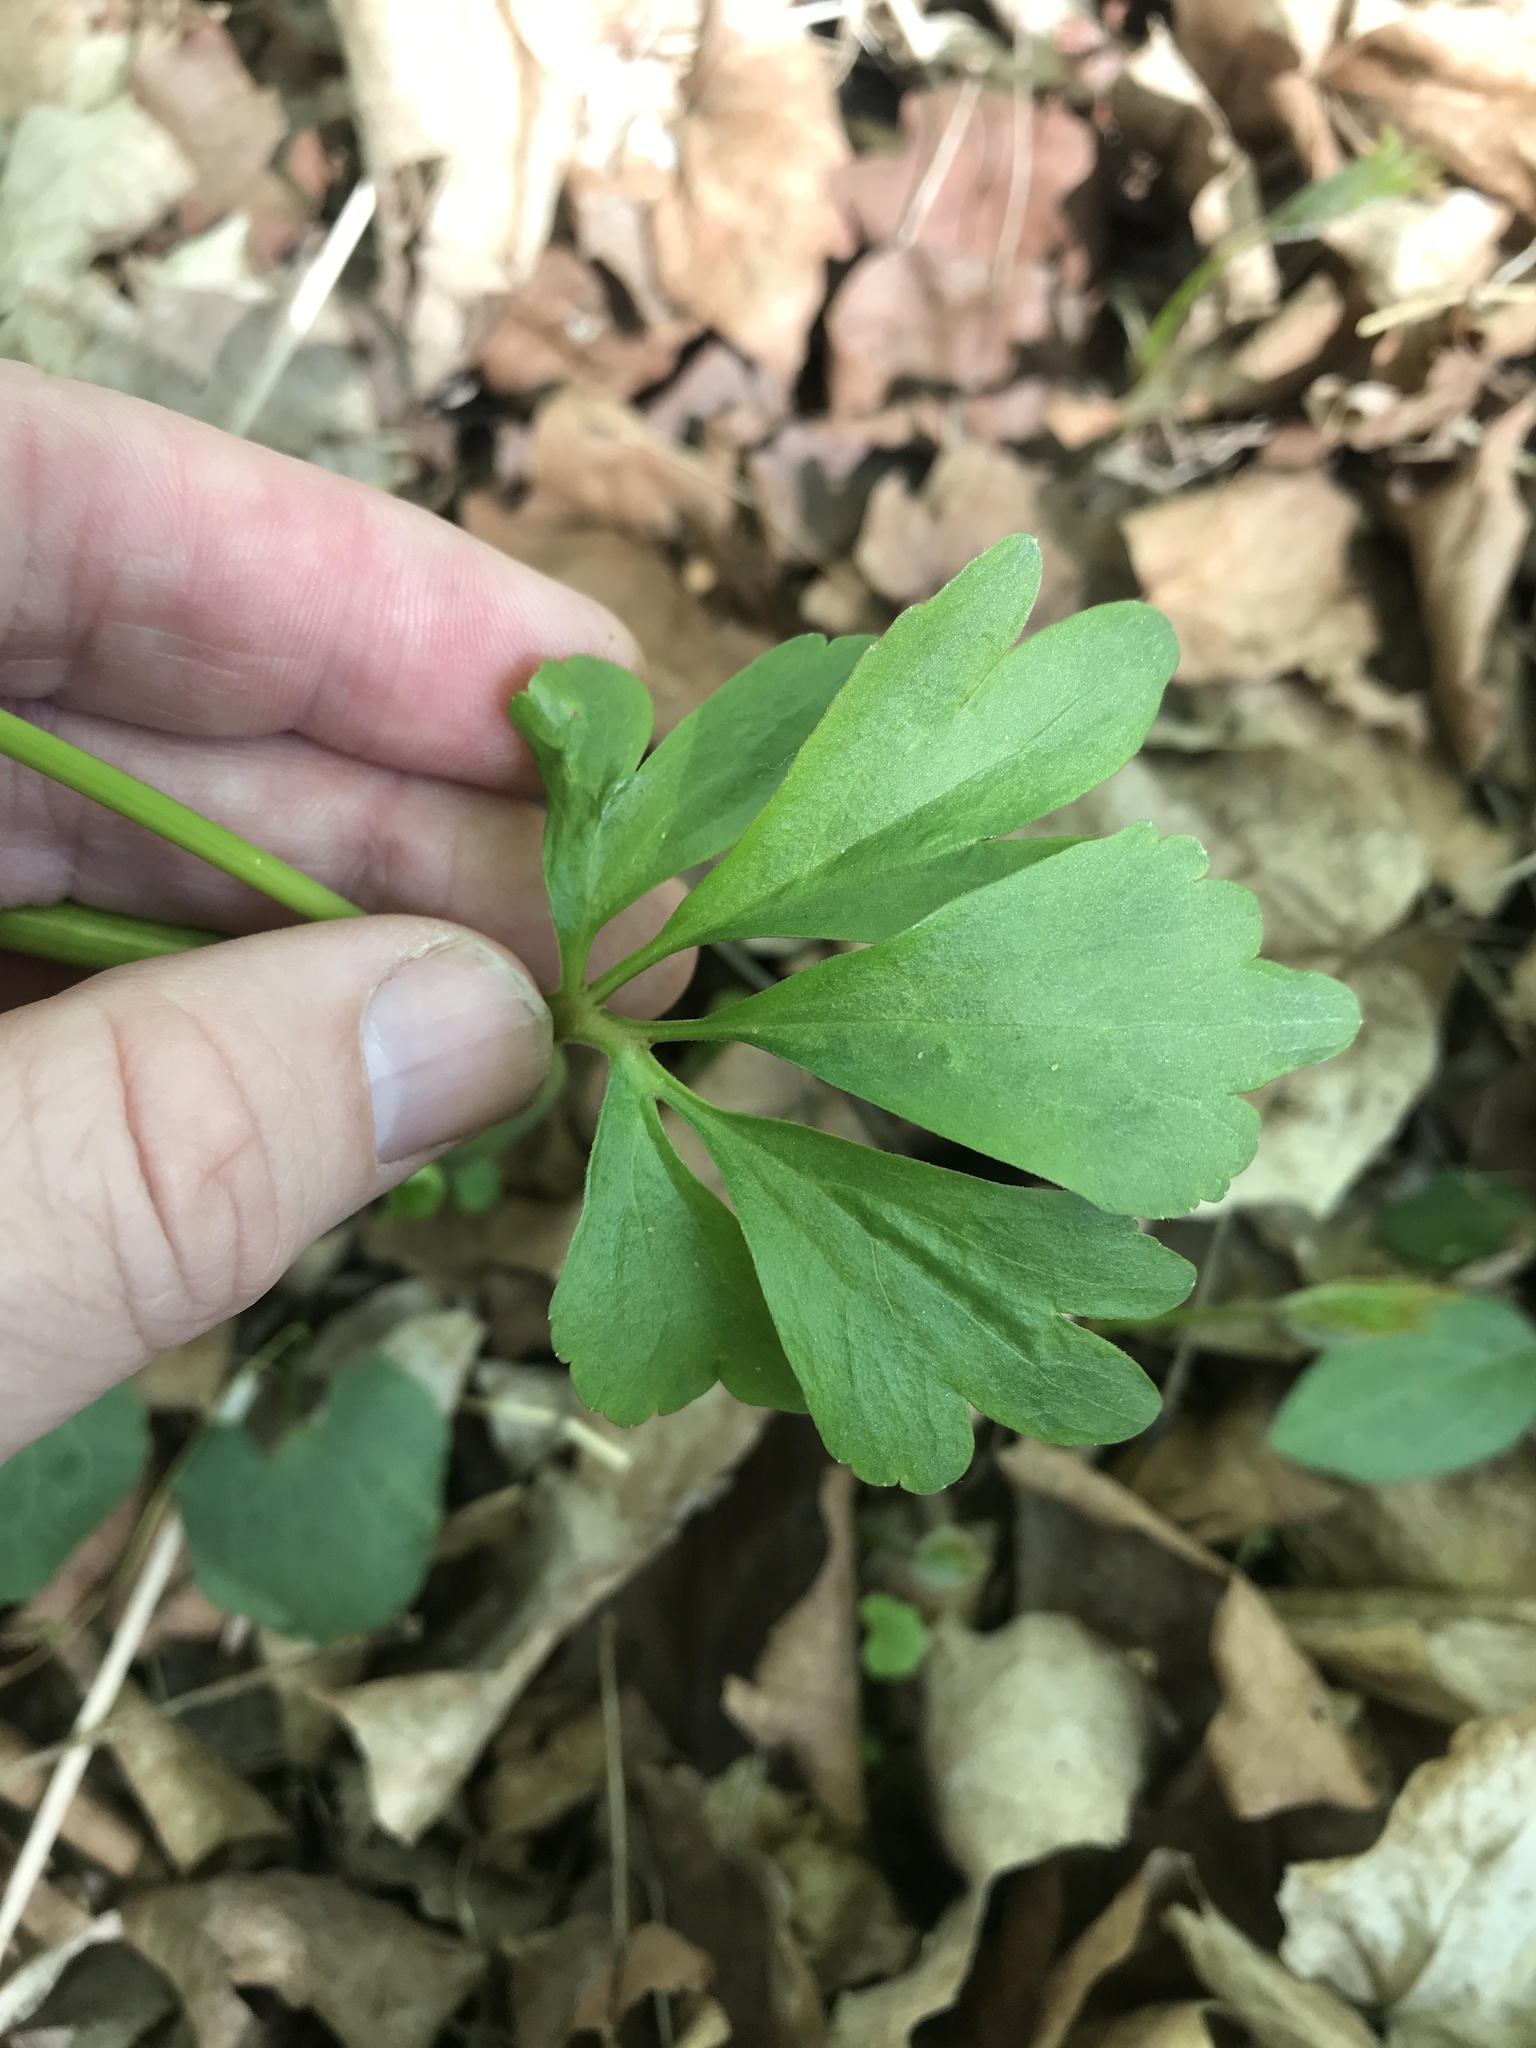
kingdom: Plantae
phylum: Tracheophyta
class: Magnoliopsida
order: Ranunculales
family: Ranunculaceae
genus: Ranunculus
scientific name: Ranunculus abortivus
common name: Early wood buttercup
